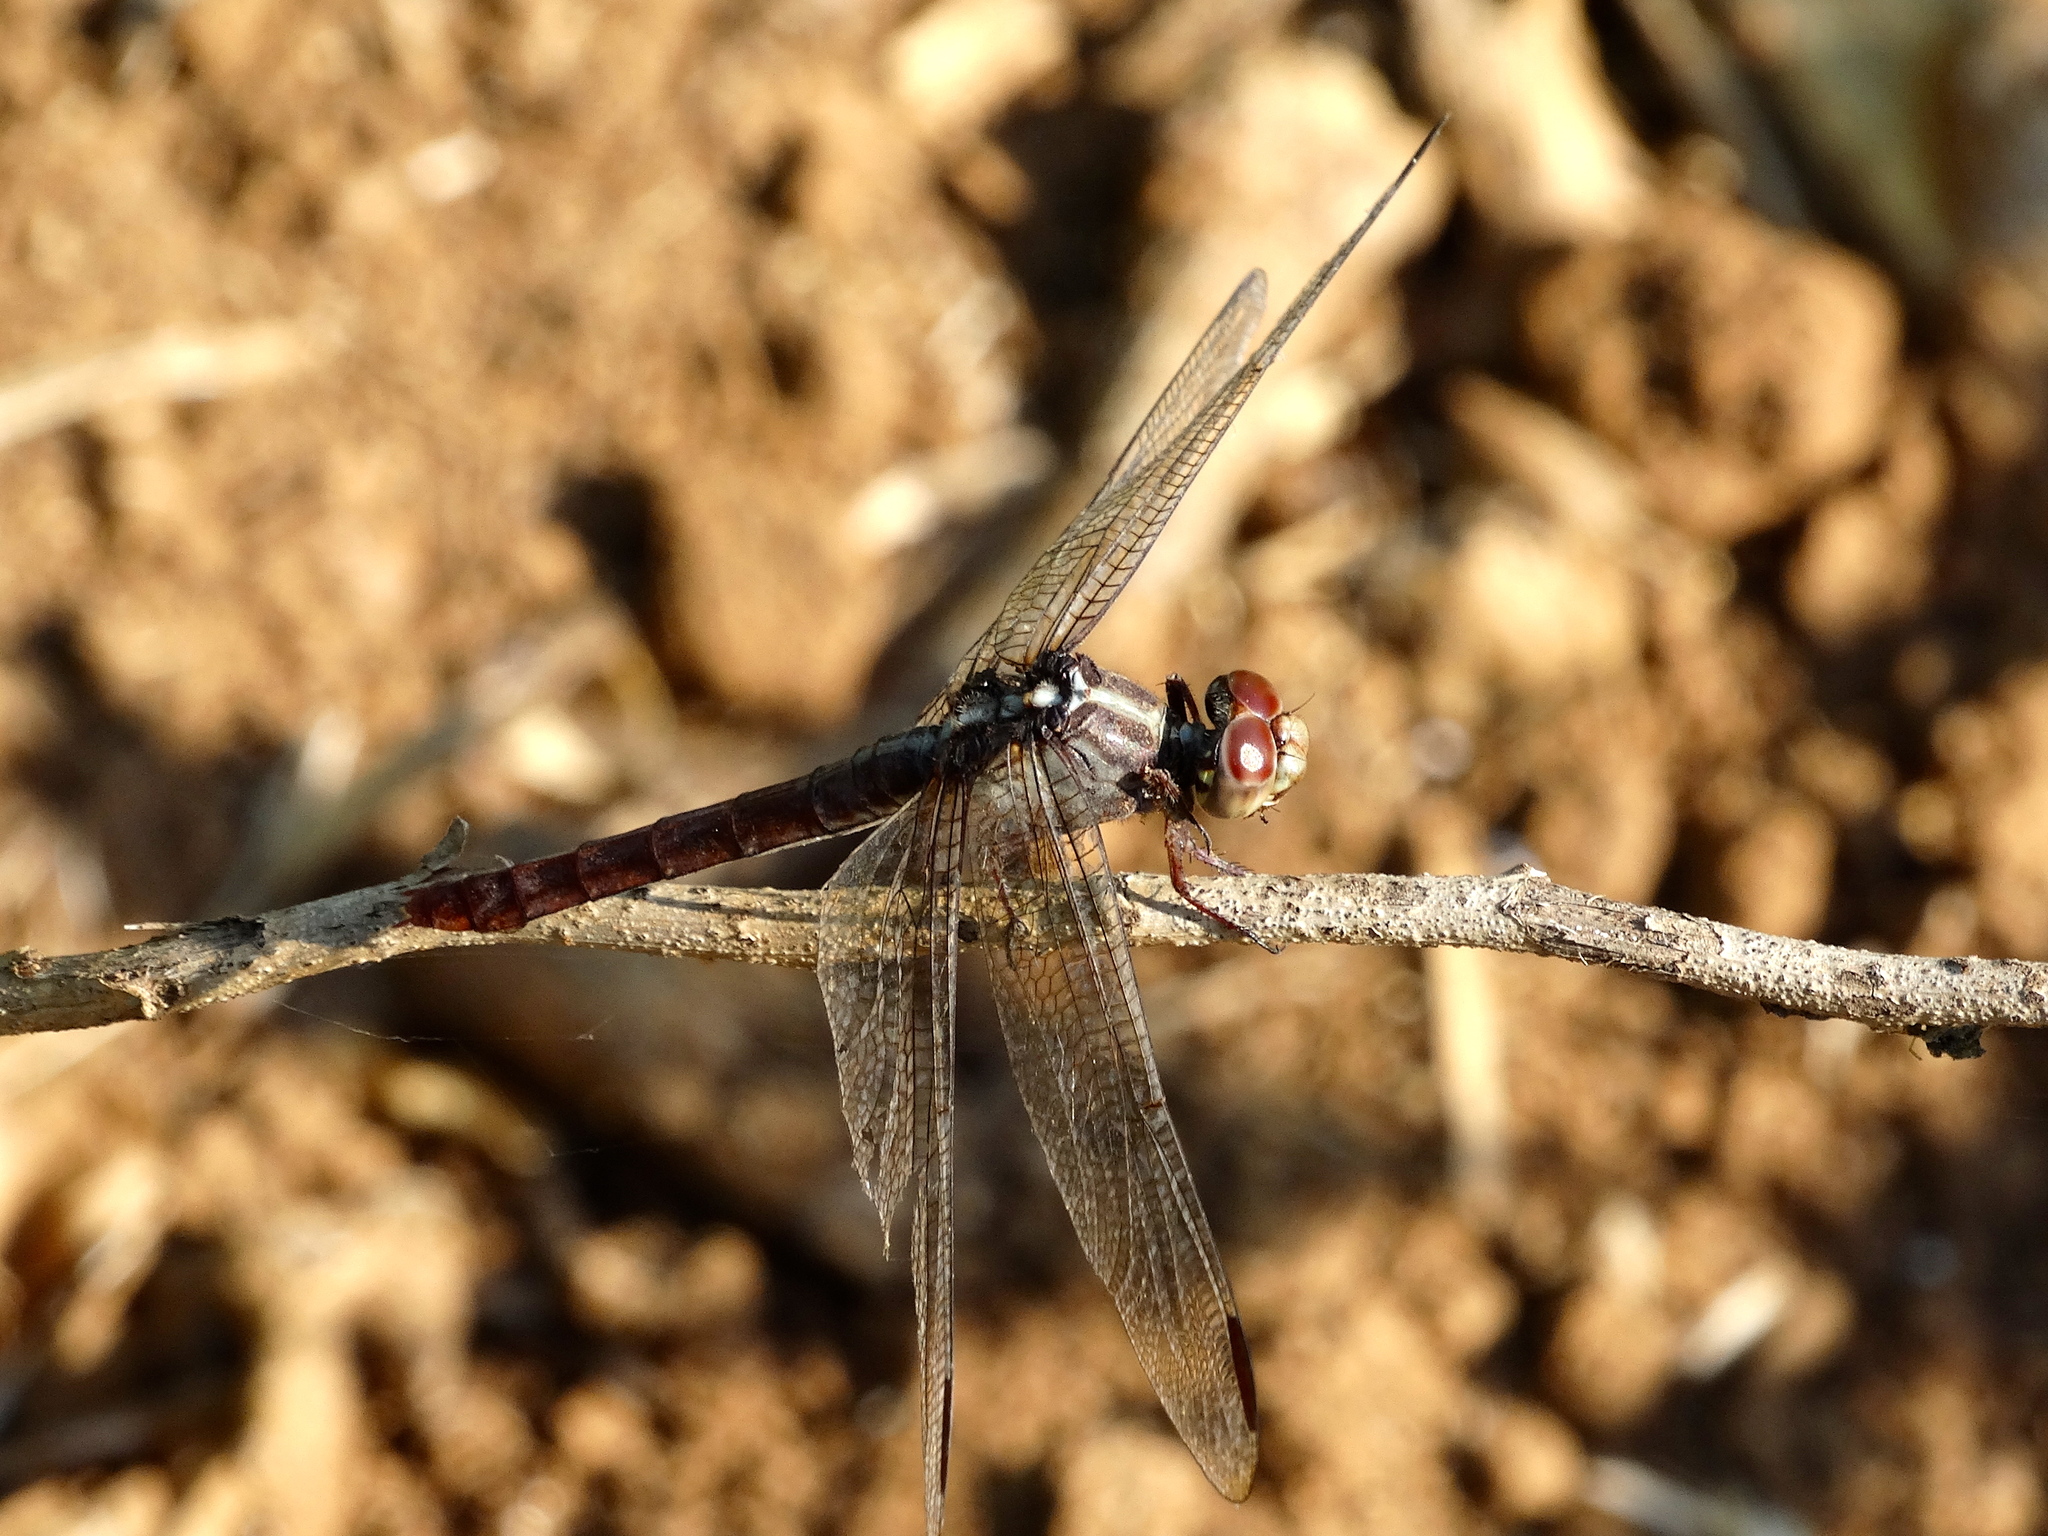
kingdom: Animalia
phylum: Arthropoda
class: Insecta
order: Odonata
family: Libellulidae
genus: Orthemis
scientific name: Orthemis
